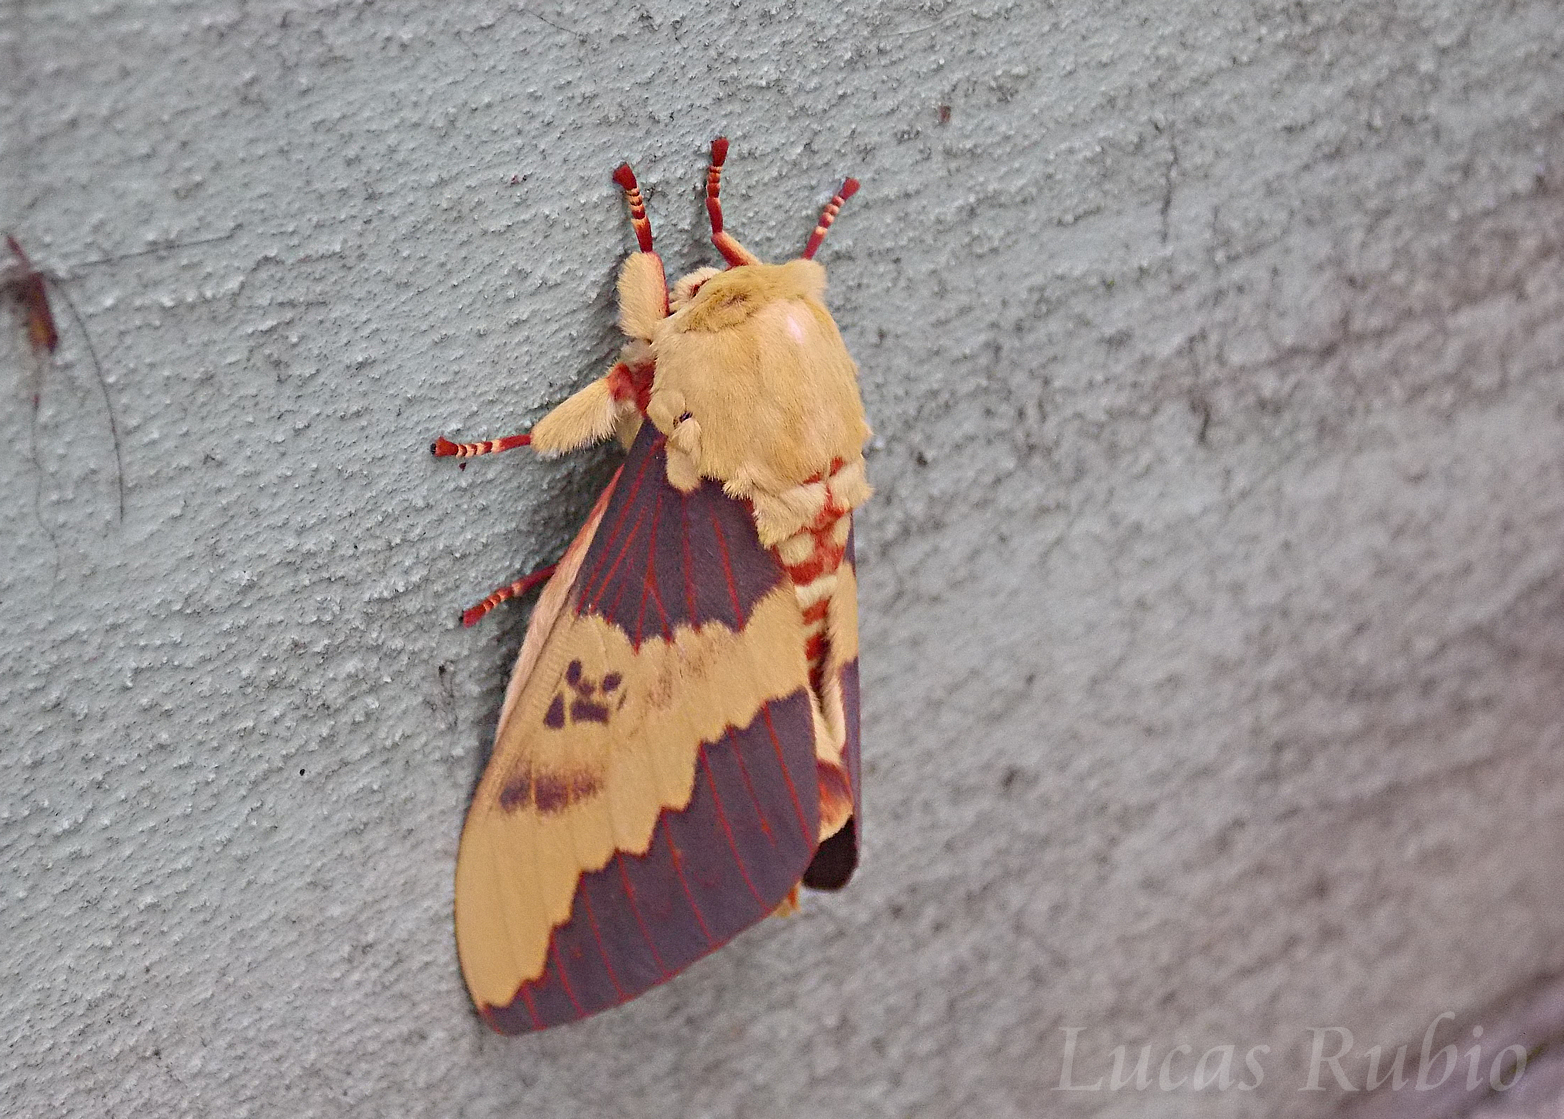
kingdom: Animalia
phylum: Arthropoda
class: Insecta
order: Lepidoptera
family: Saturniidae
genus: Citheronia
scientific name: Citheronia laocoon
